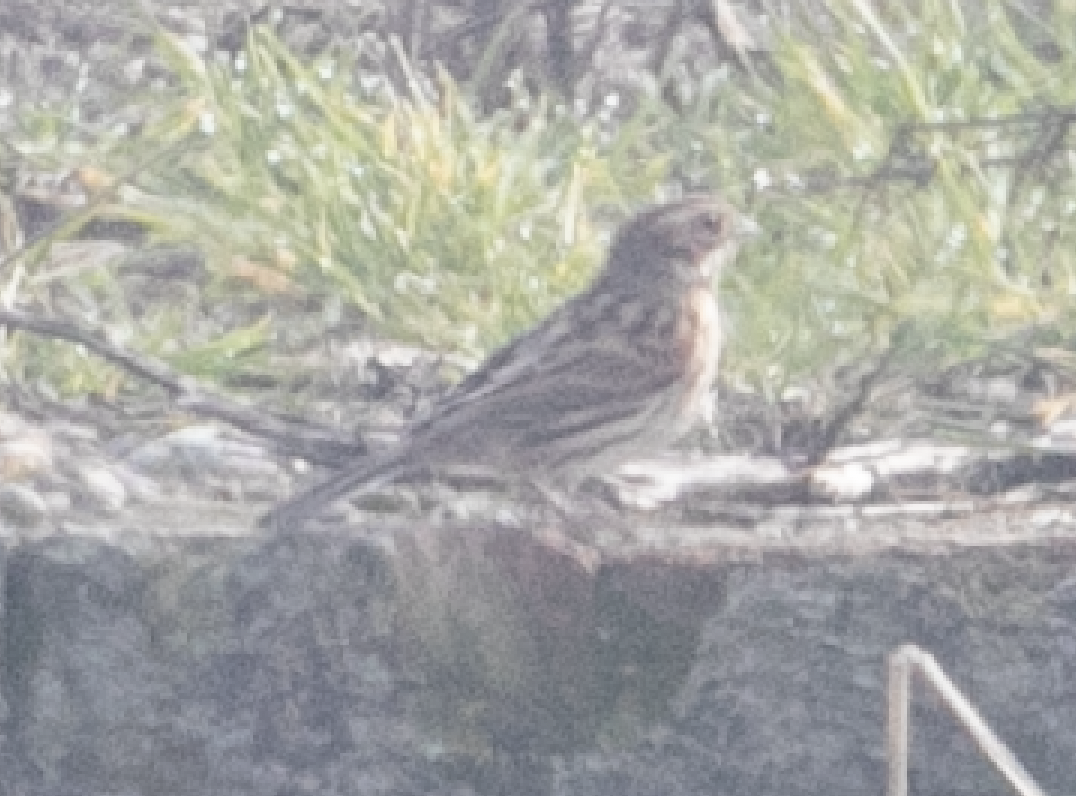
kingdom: Animalia
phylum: Chordata
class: Aves
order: Passeriformes
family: Emberizidae
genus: Emberiza
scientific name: Emberiza schoeniclus
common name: Reed bunting
